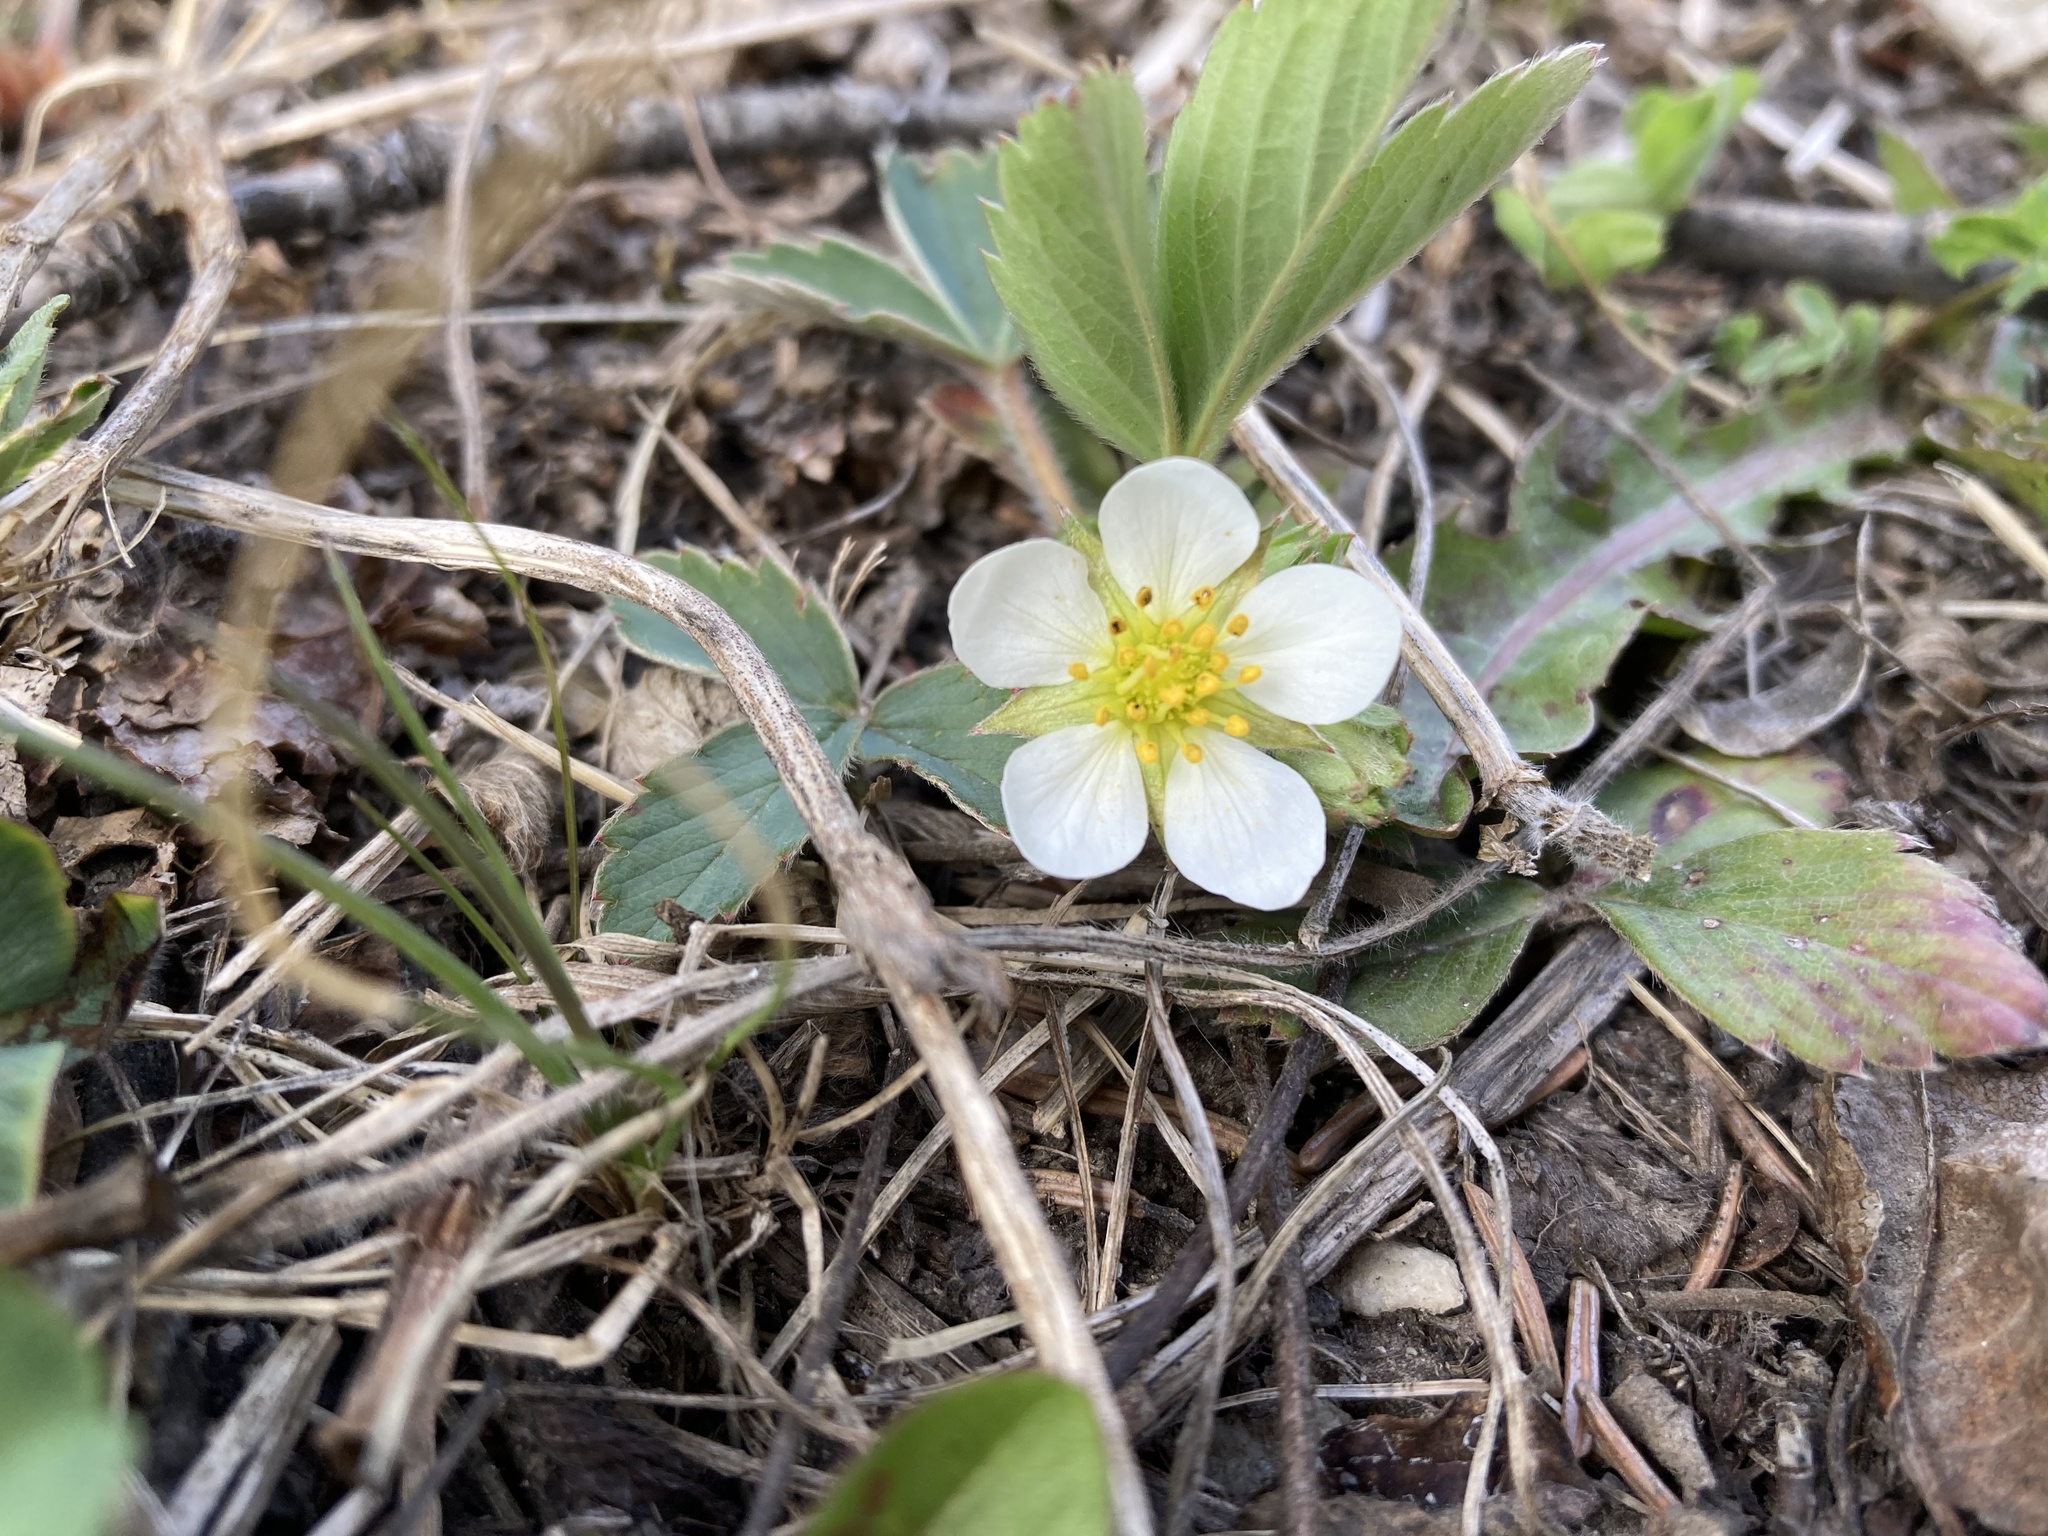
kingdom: Plantae
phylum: Tracheophyta
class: Magnoliopsida
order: Rosales
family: Rosaceae
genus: Fragaria
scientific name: Fragaria virginiana
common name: Thickleaved wild strawberry
